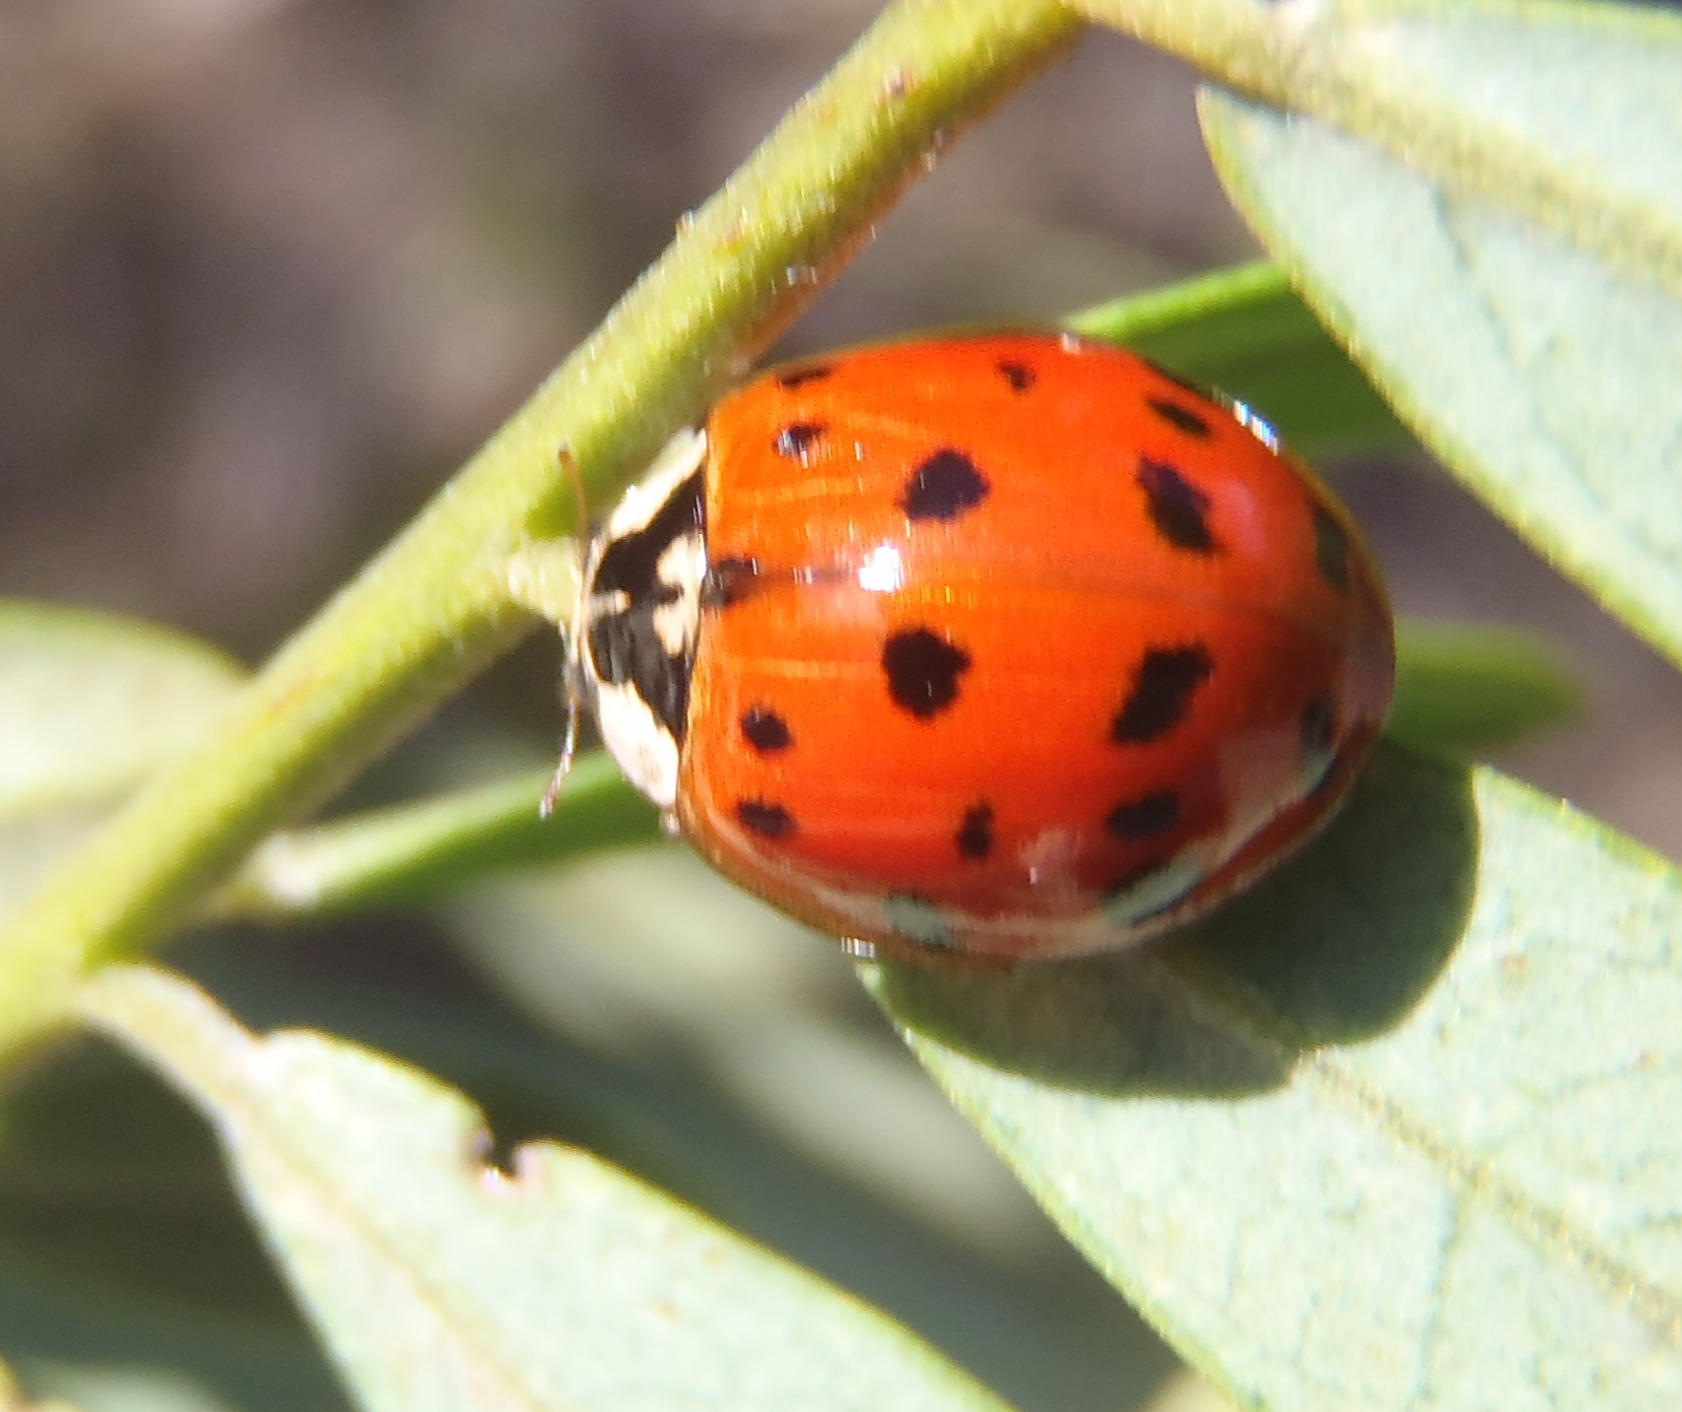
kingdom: Animalia
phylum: Arthropoda
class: Insecta
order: Coleoptera
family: Coccinellidae
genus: Harmonia
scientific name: Harmonia axyridis
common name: Harlequin ladybird
